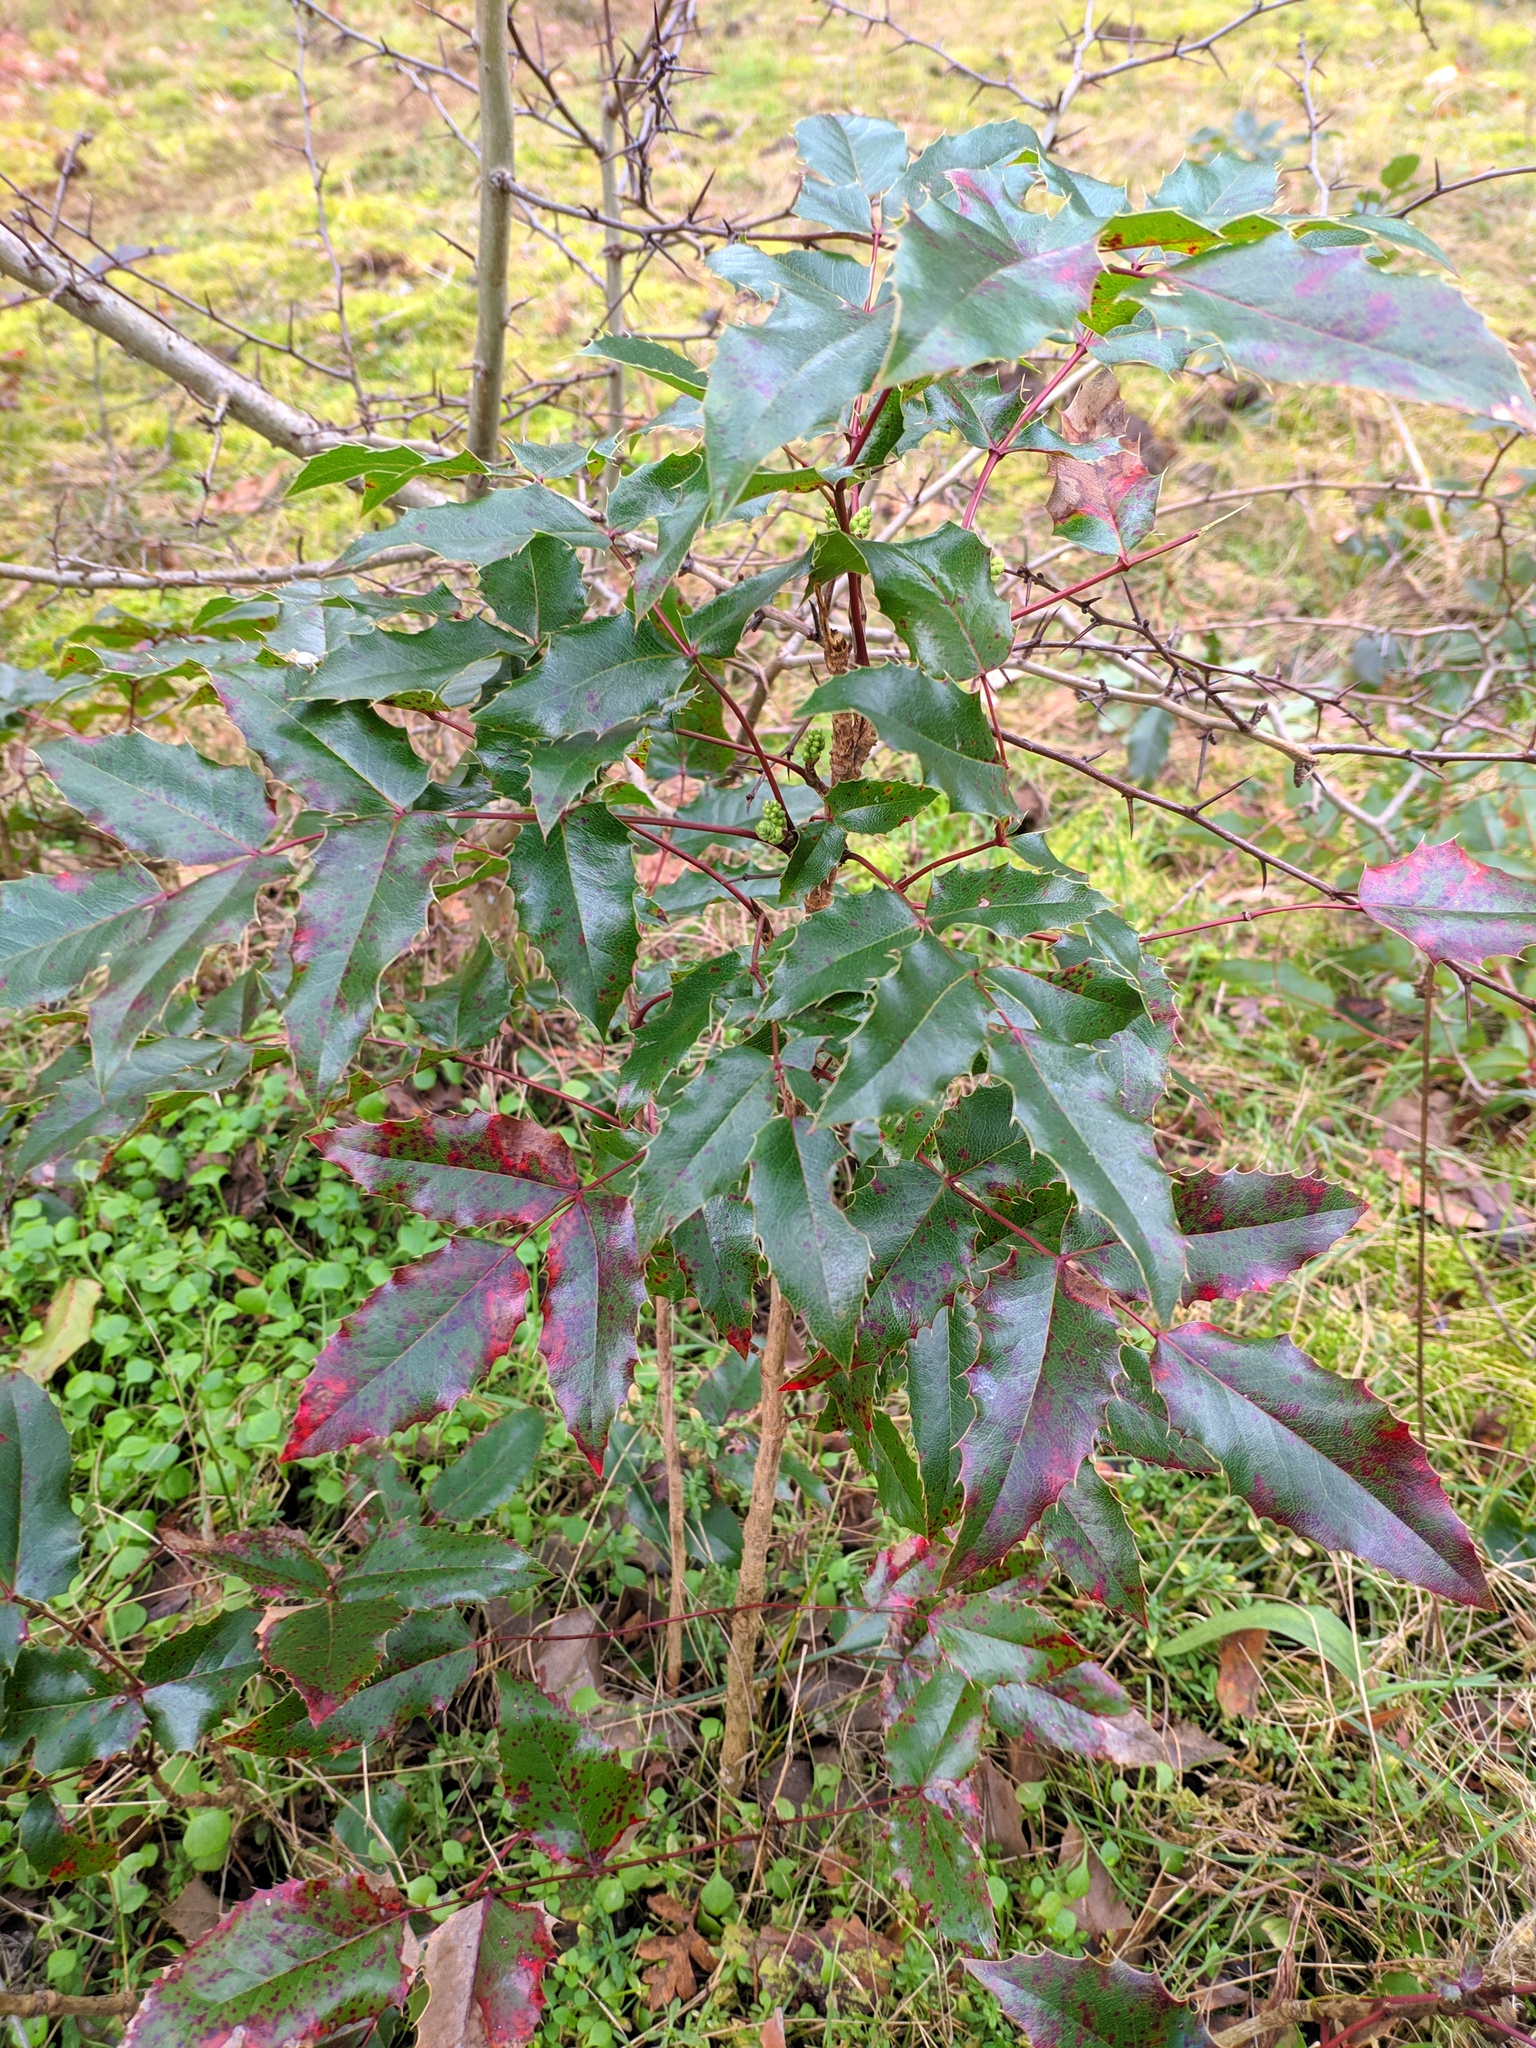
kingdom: Plantae
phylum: Tracheophyta
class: Magnoliopsida
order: Ranunculales
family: Berberidaceae
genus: Mahonia
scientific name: Mahonia aquifolium
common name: Oregon-grape
